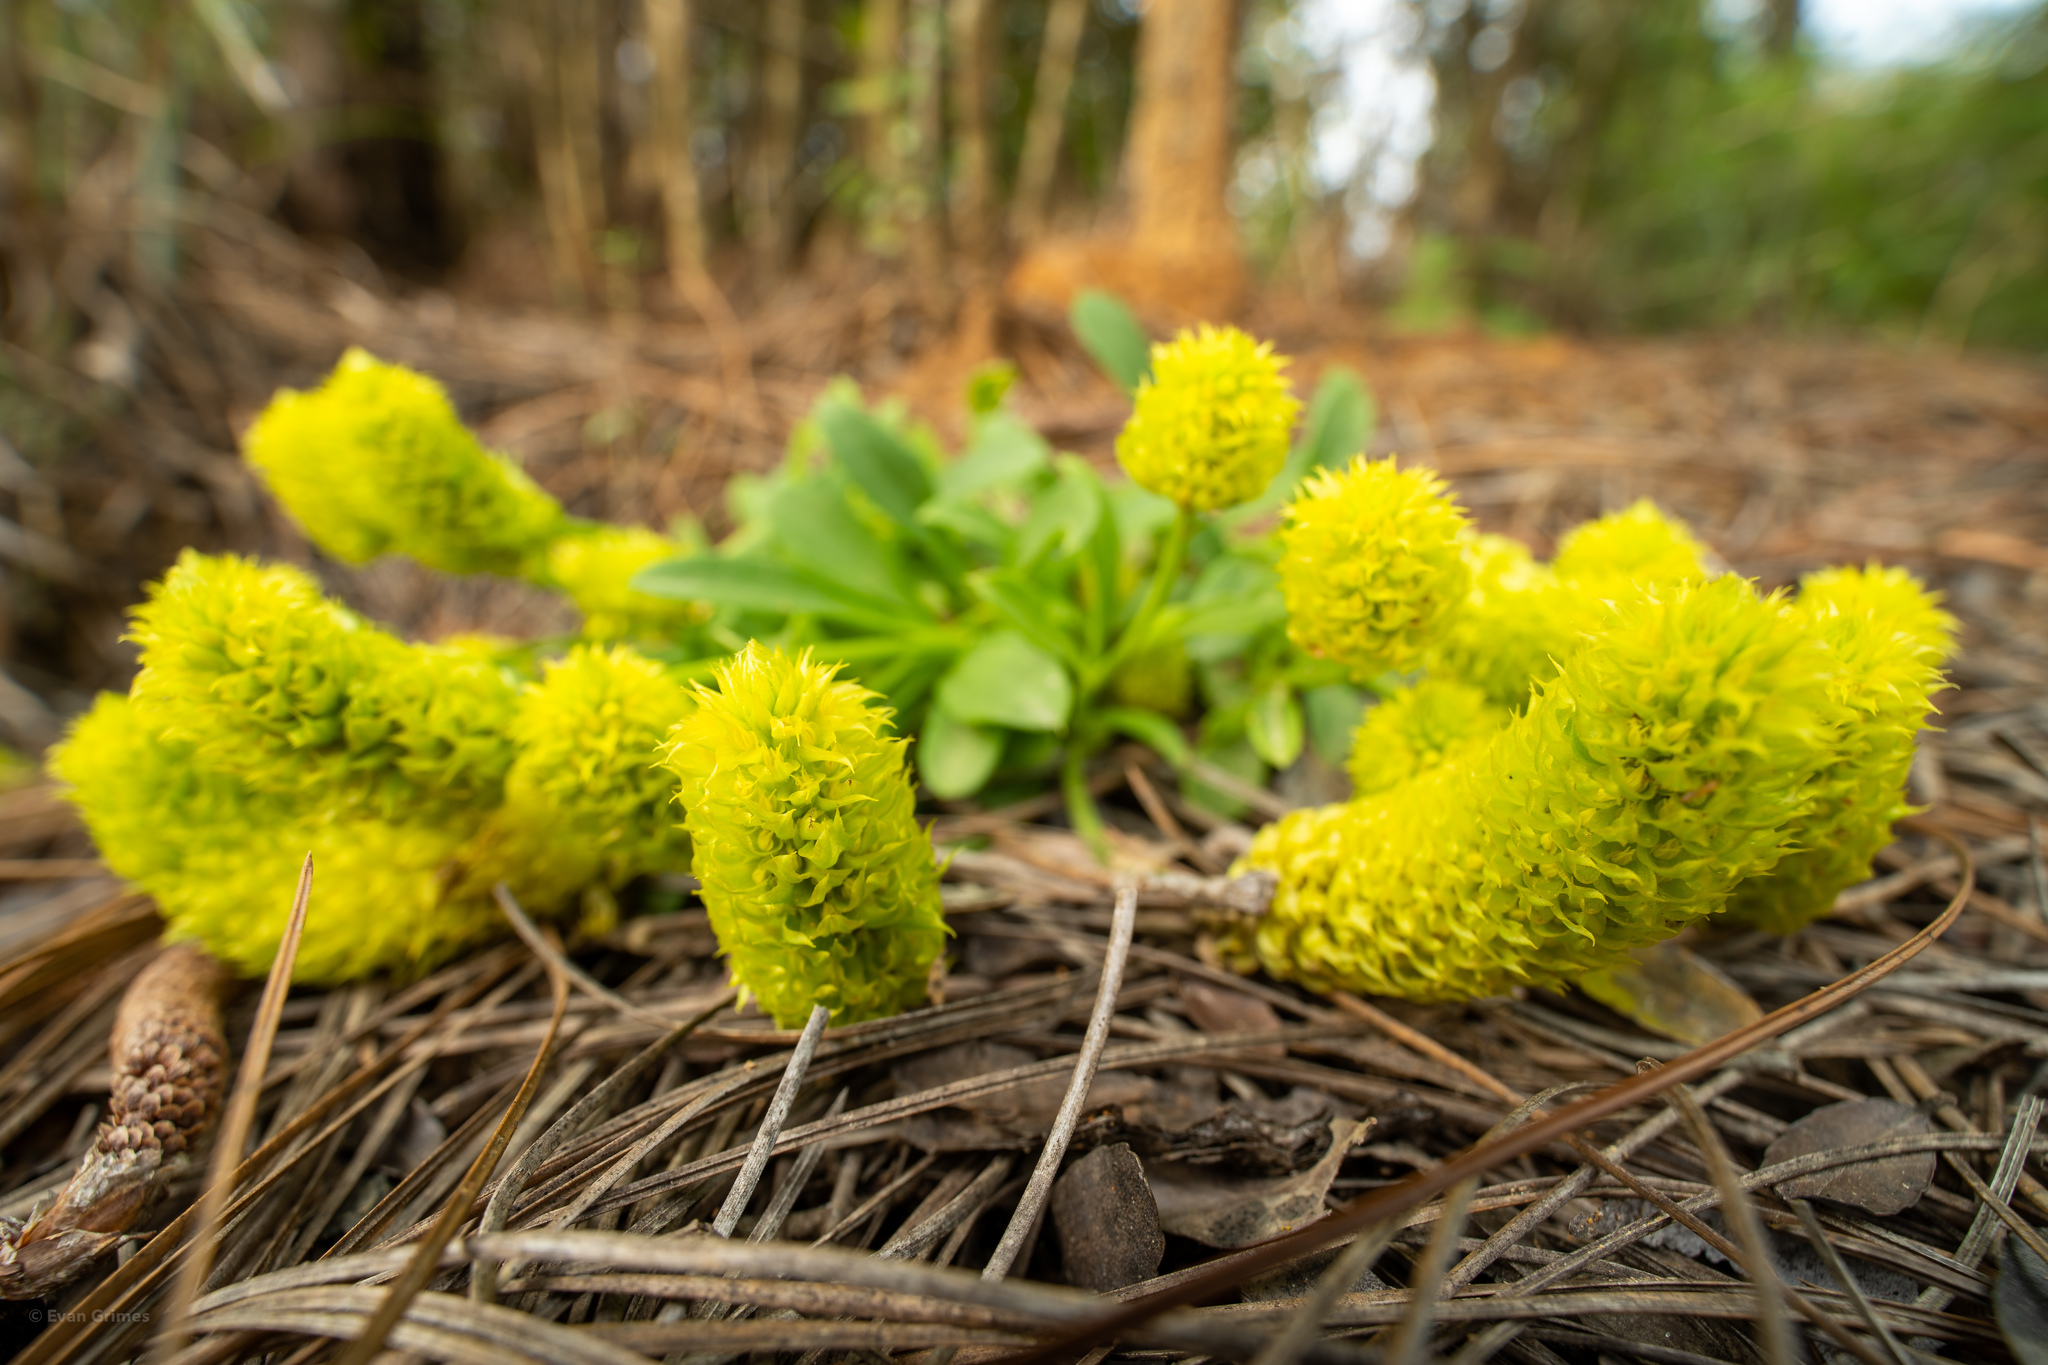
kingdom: Plantae
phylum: Tracheophyta
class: Magnoliopsida
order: Fabales
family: Polygalaceae
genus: Polygala
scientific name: Polygala nana
